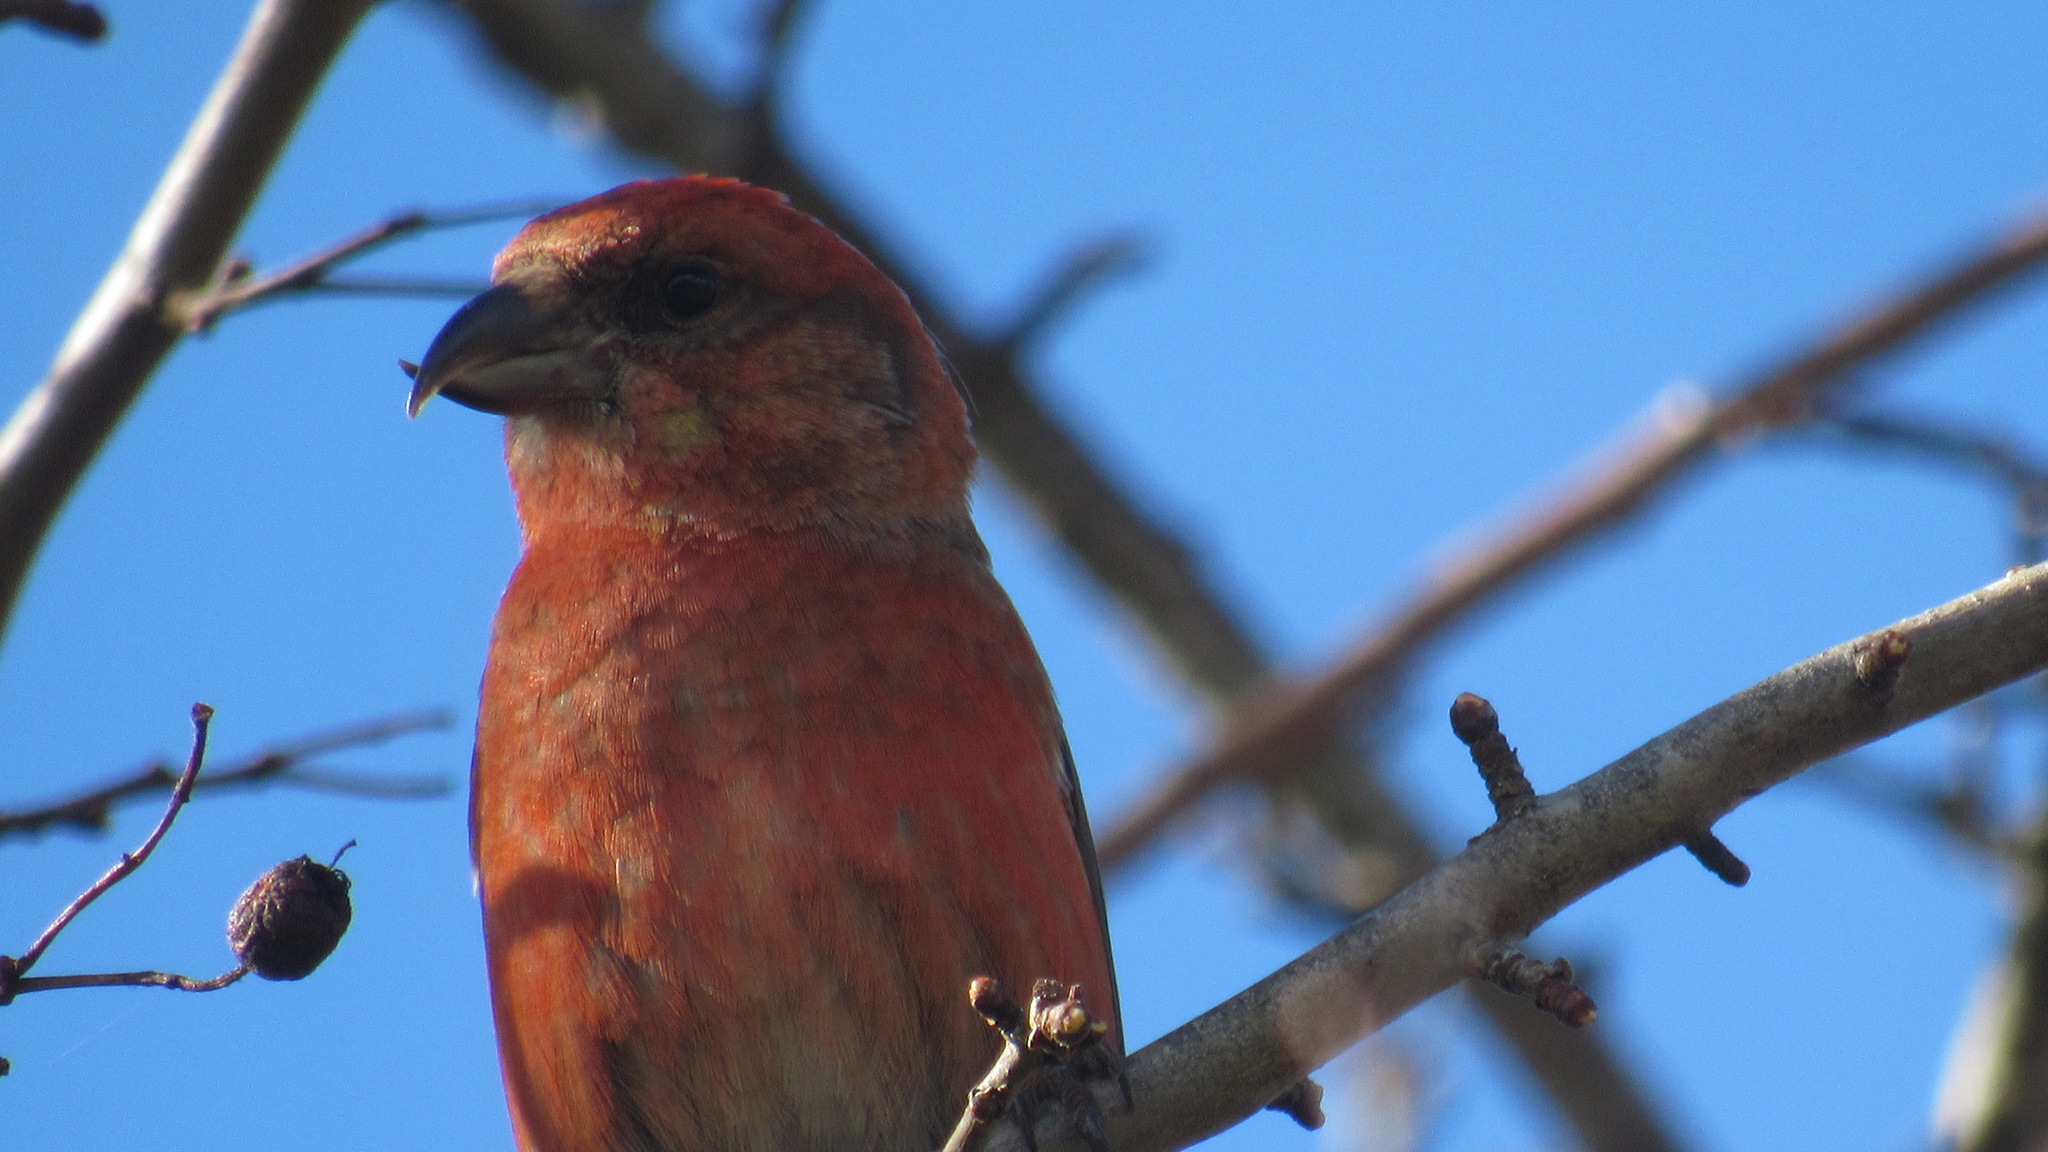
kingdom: Animalia
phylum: Chordata
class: Aves
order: Passeriformes
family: Fringillidae
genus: Loxia
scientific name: Loxia curvirostra
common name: Red crossbill
